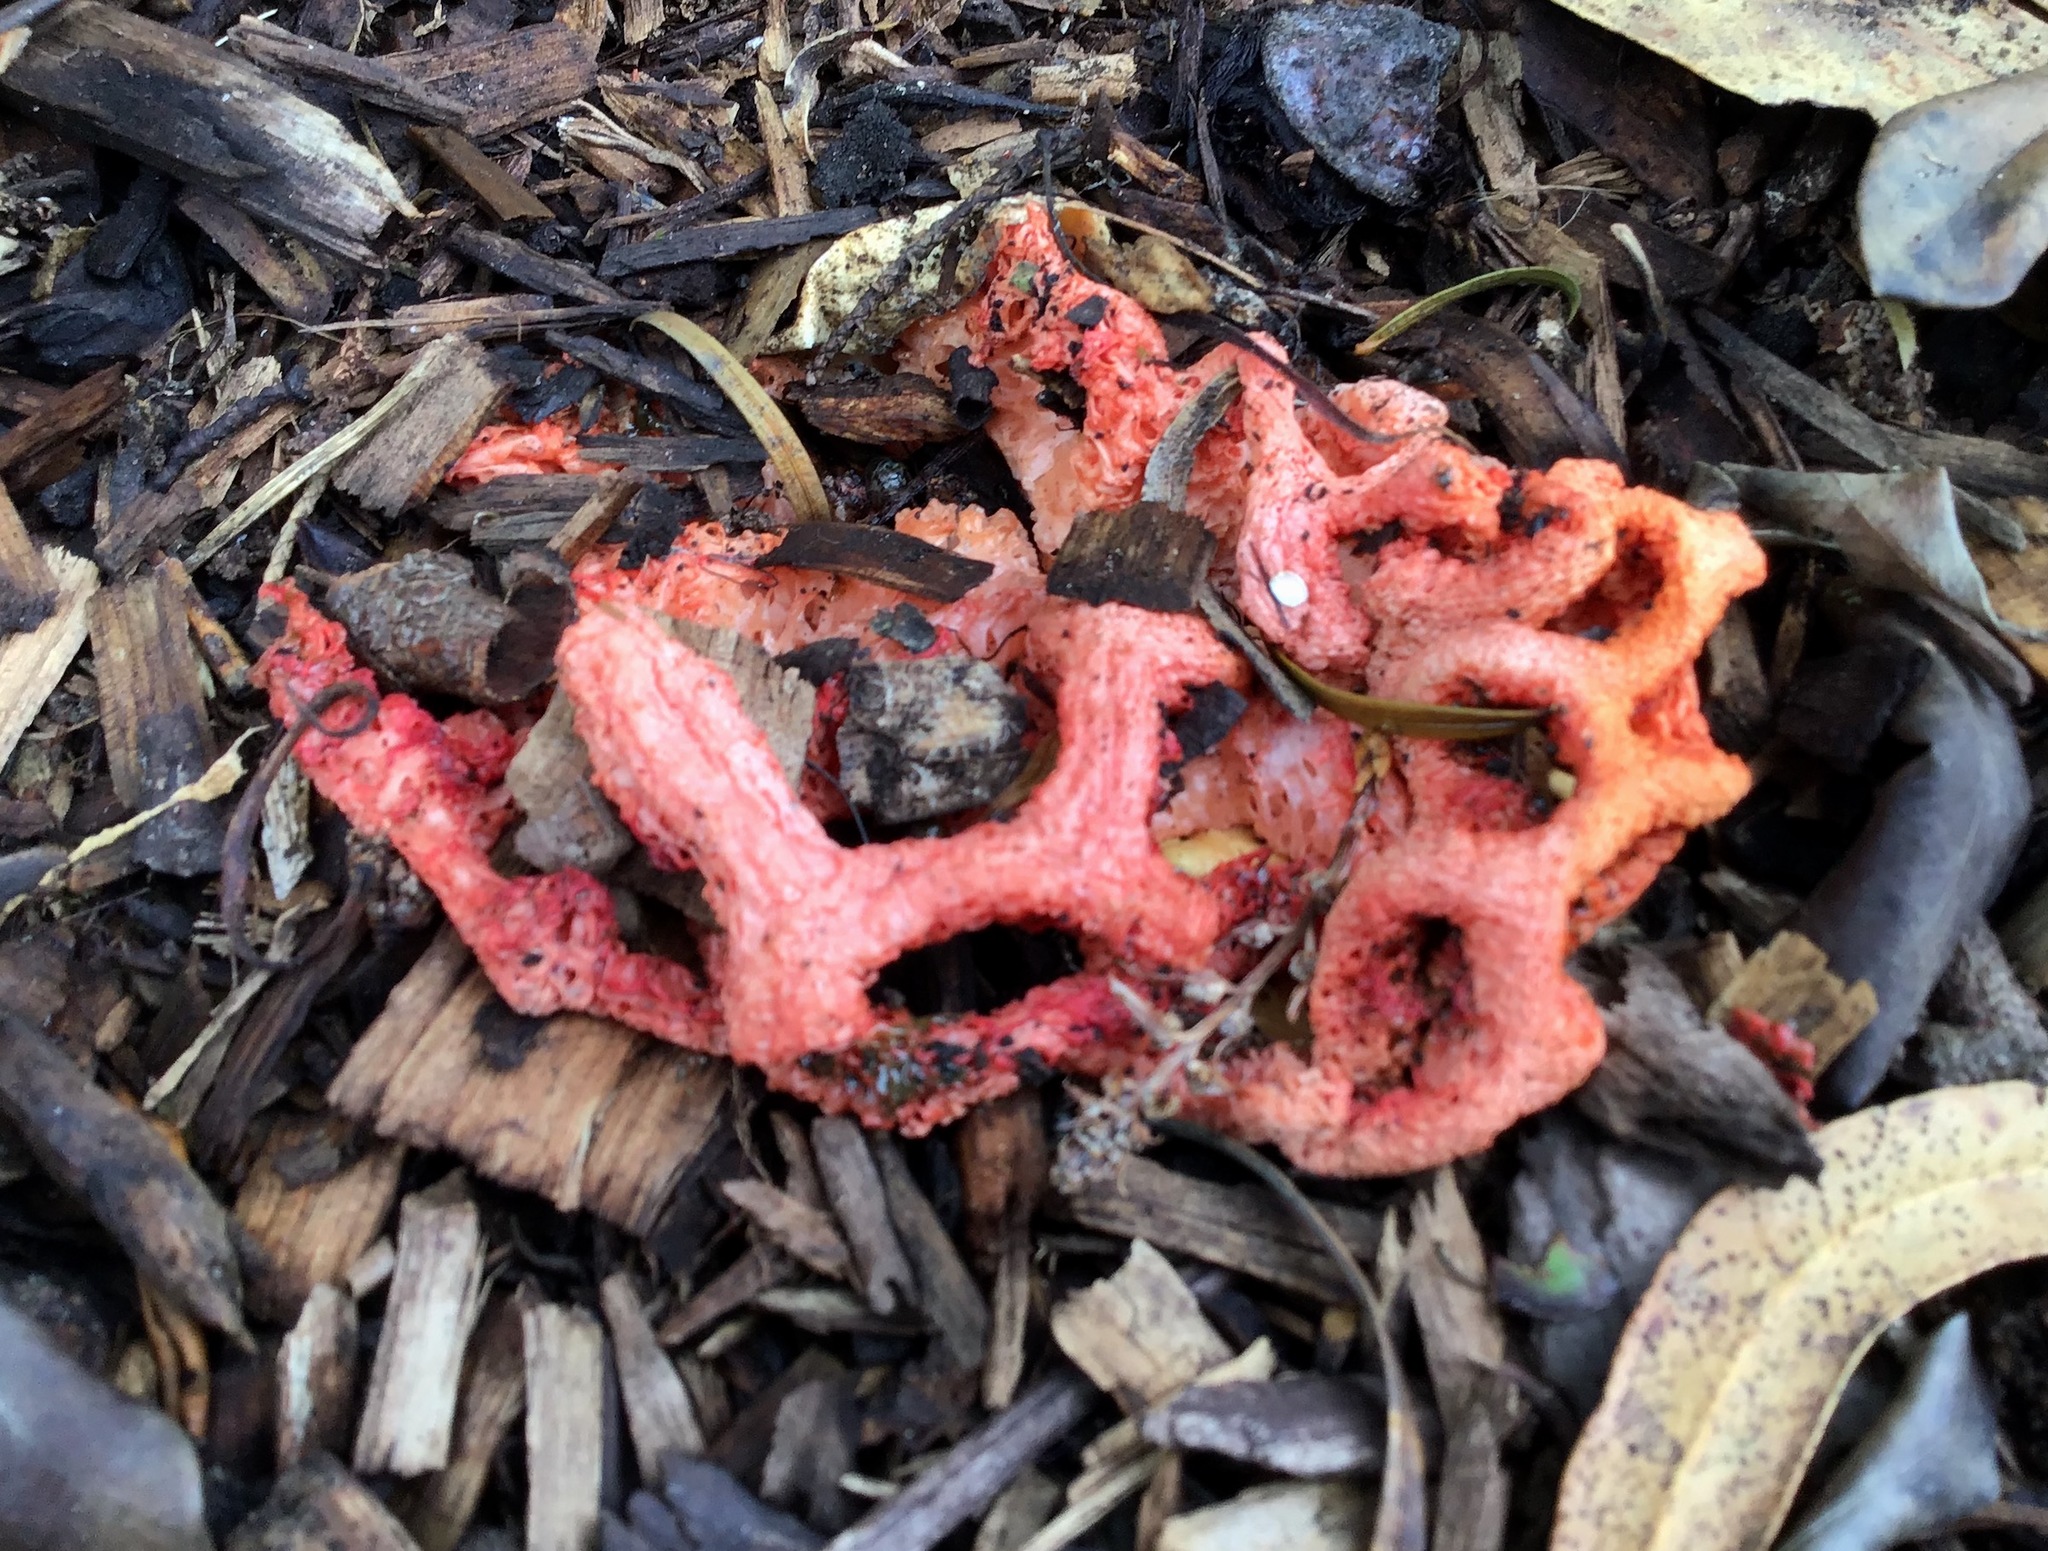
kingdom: Fungi
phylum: Basidiomycota
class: Agaricomycetes
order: Phallales
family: Phallaceae
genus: Clathrus
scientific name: Clathrus ruber
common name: Red cage
